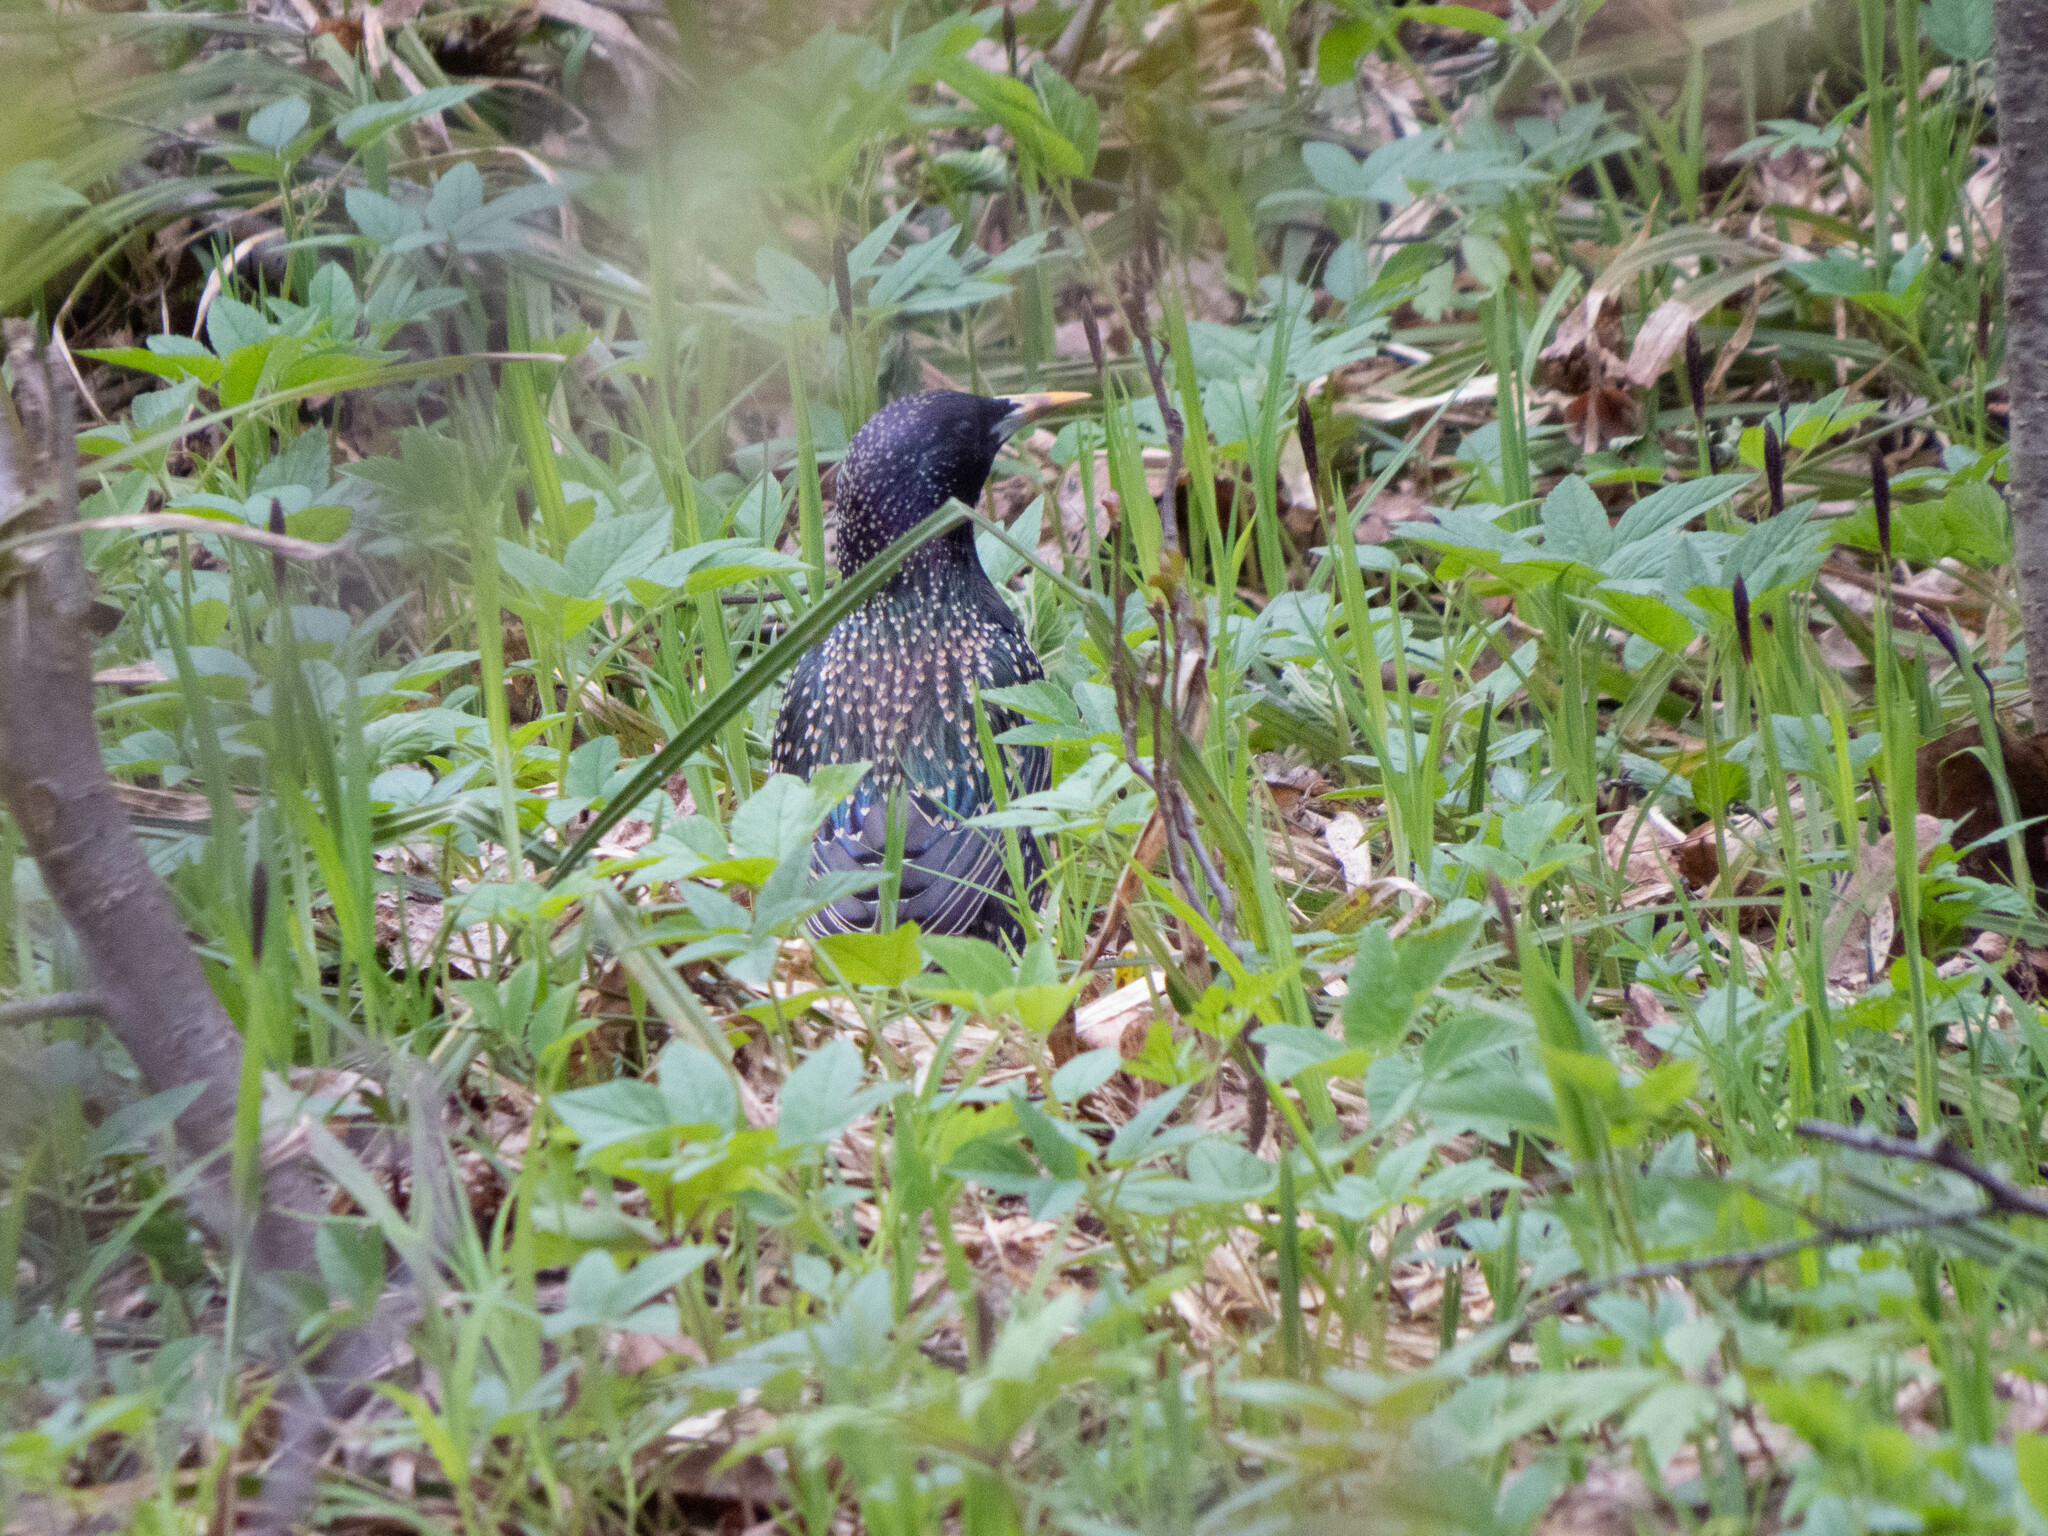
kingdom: Animalia
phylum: Chordata
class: Aves
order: Passeriformes
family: Sturnidae
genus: Sturnus
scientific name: Sturnus vulgaris
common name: Common starling
